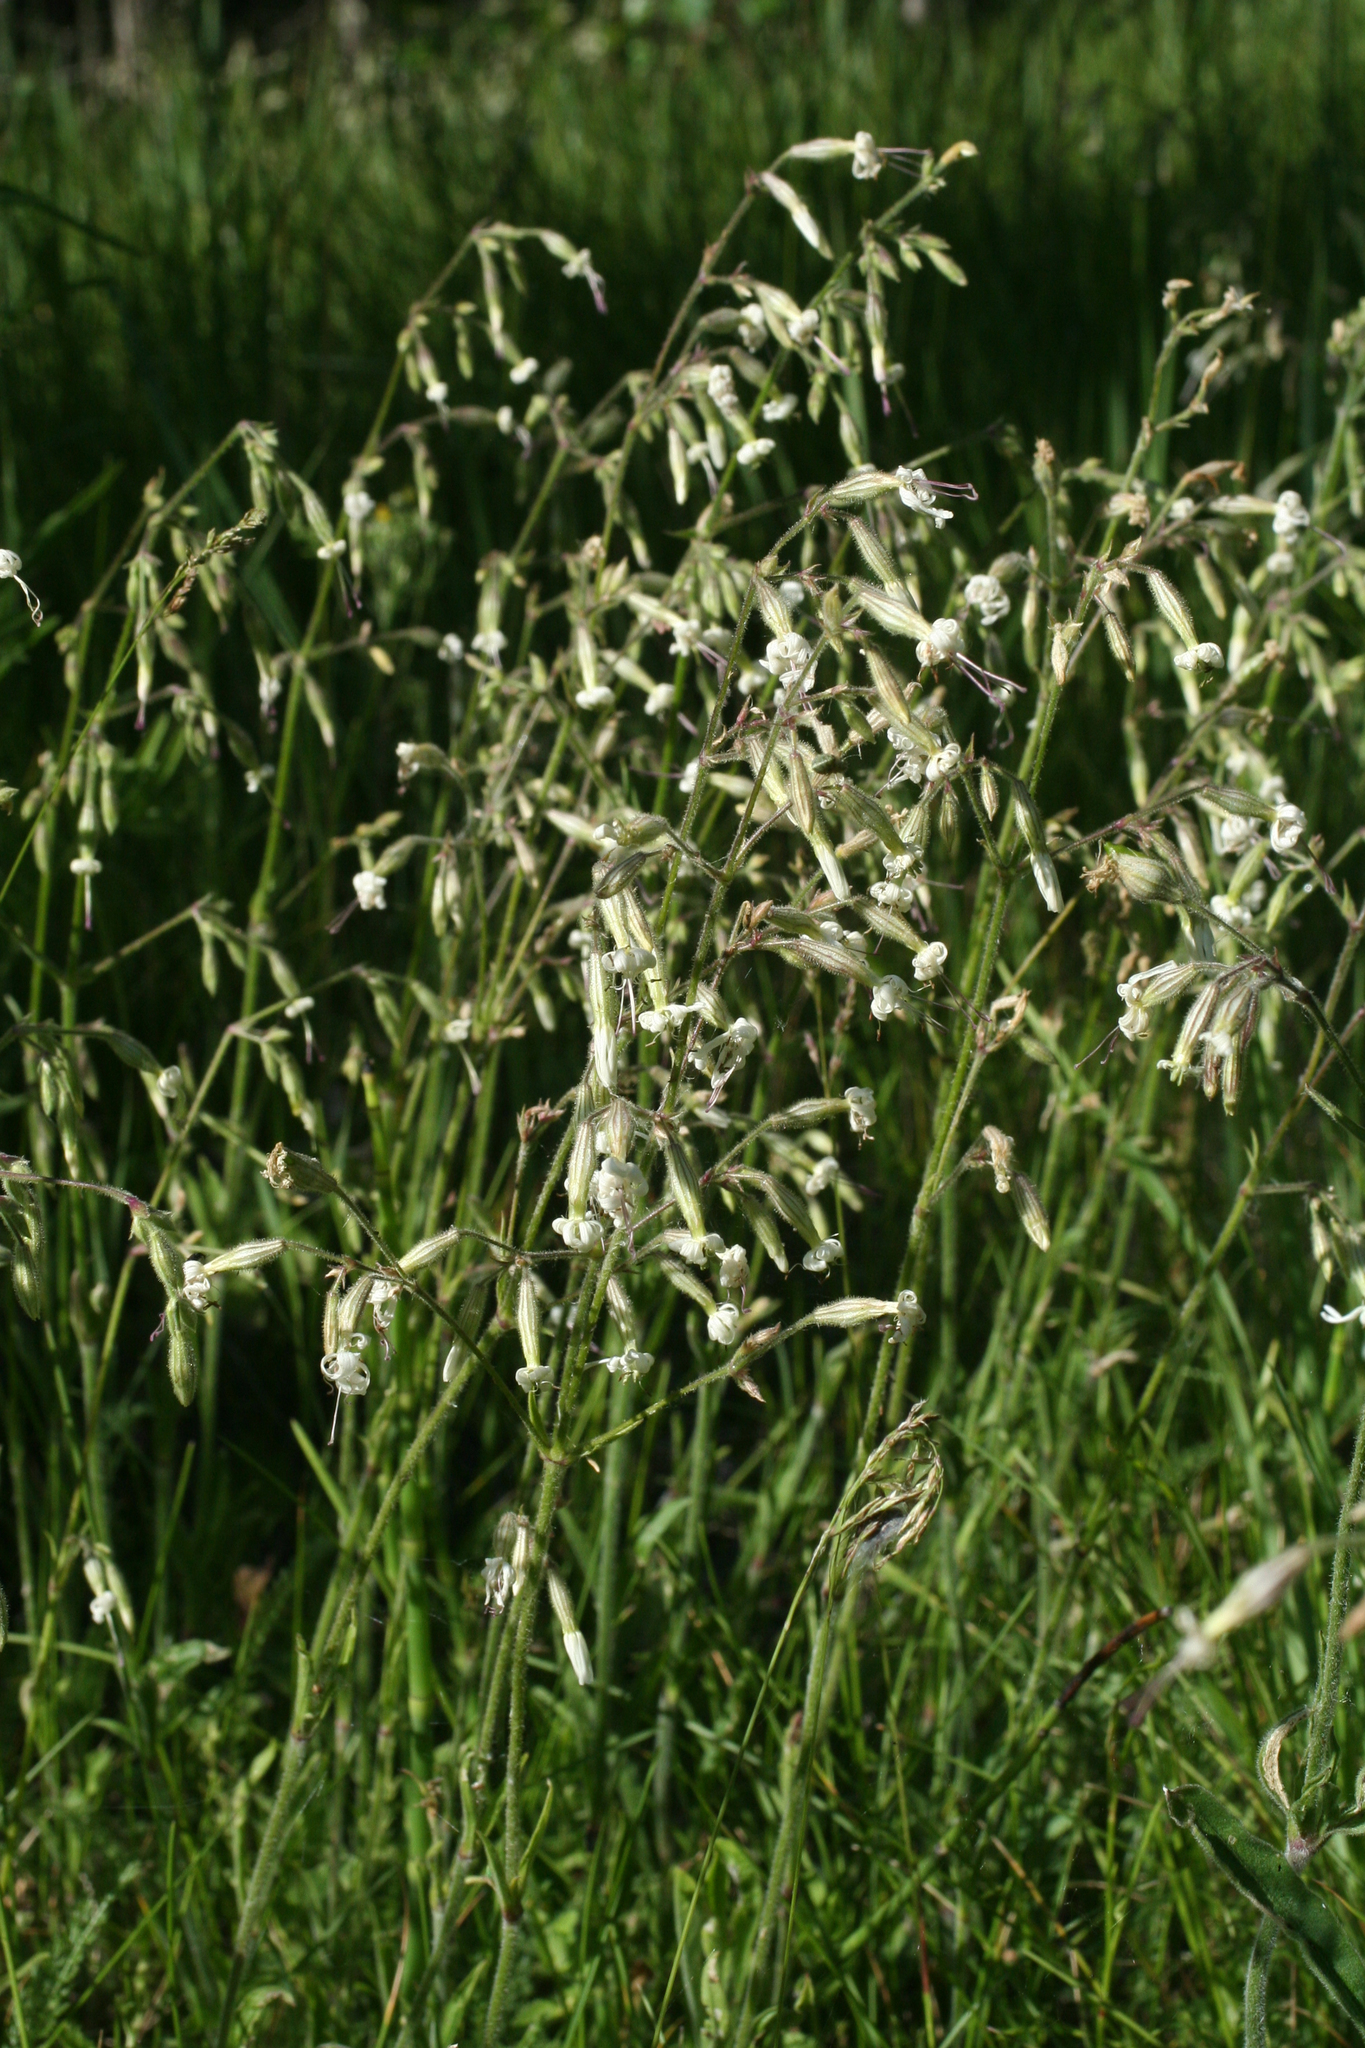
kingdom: Plantae
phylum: Tracheophyta
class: Magnoliopsida
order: Caryophyllales
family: Caryophyllaceae
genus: Silene
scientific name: Silene nutans
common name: Nottingham catchfly
